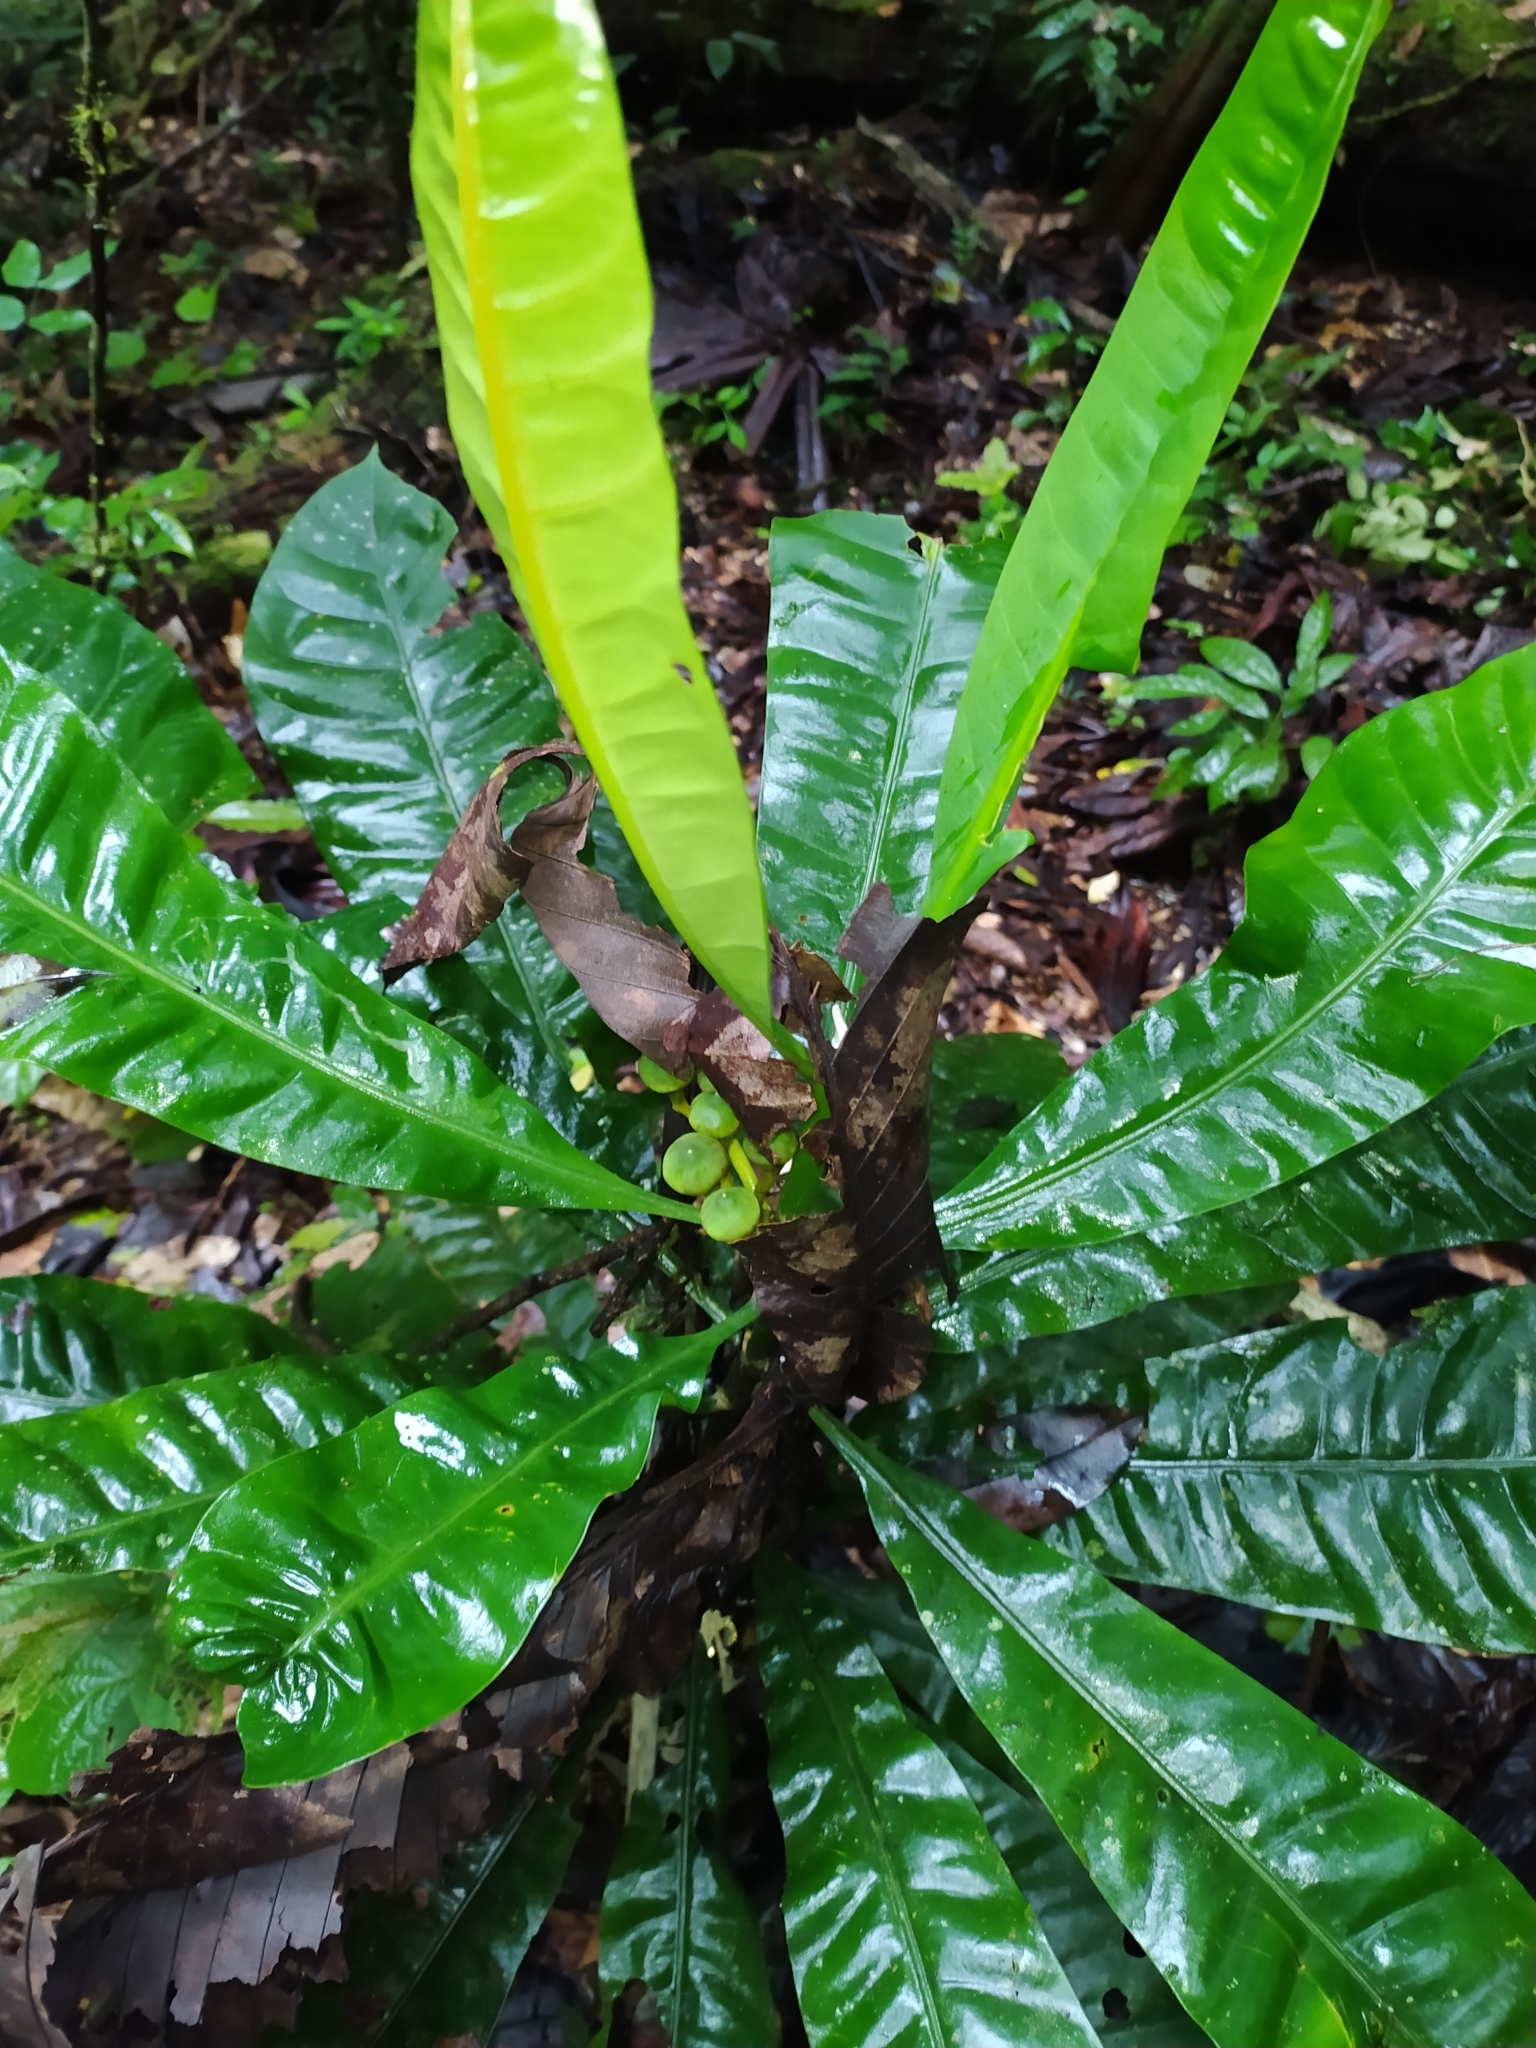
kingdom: Plantae
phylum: Tracheophyta
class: Magnoliopsida
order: Gentianales
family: Gentianaceae
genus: Potalia
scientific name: Potalia amara
